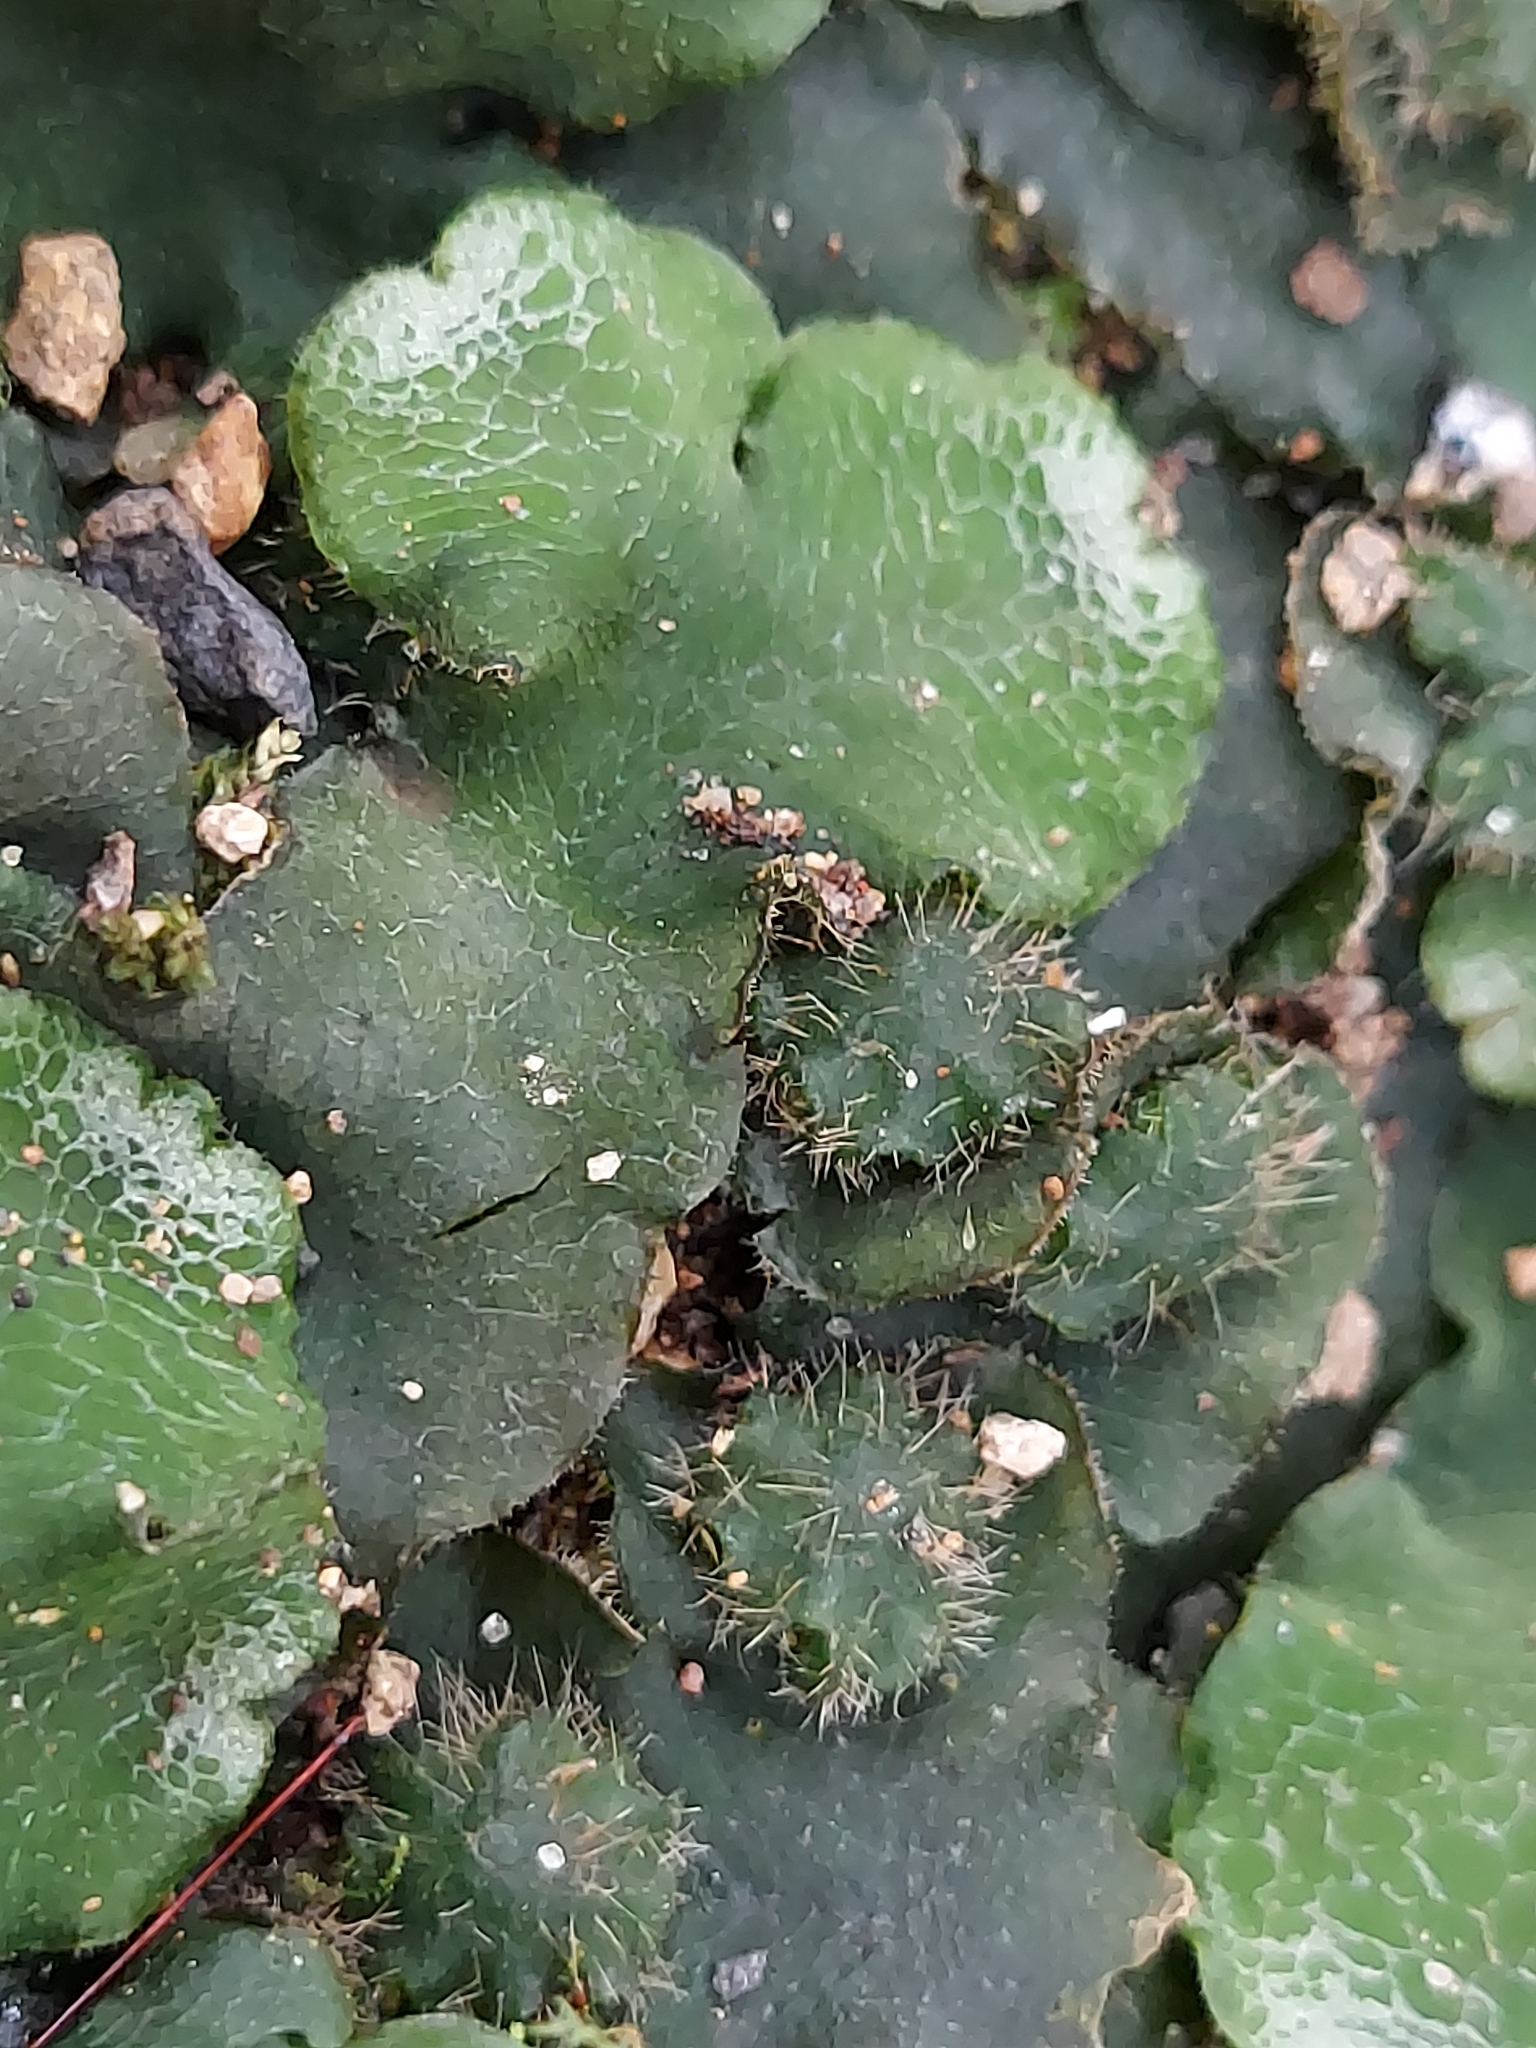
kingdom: Plantae
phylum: Marchantiophyta
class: Marchantiopsida
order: Marchantiales
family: Dumortieraceae
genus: Dumortiera
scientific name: Dumortiera hirsuta
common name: Dumortier's liverwort
